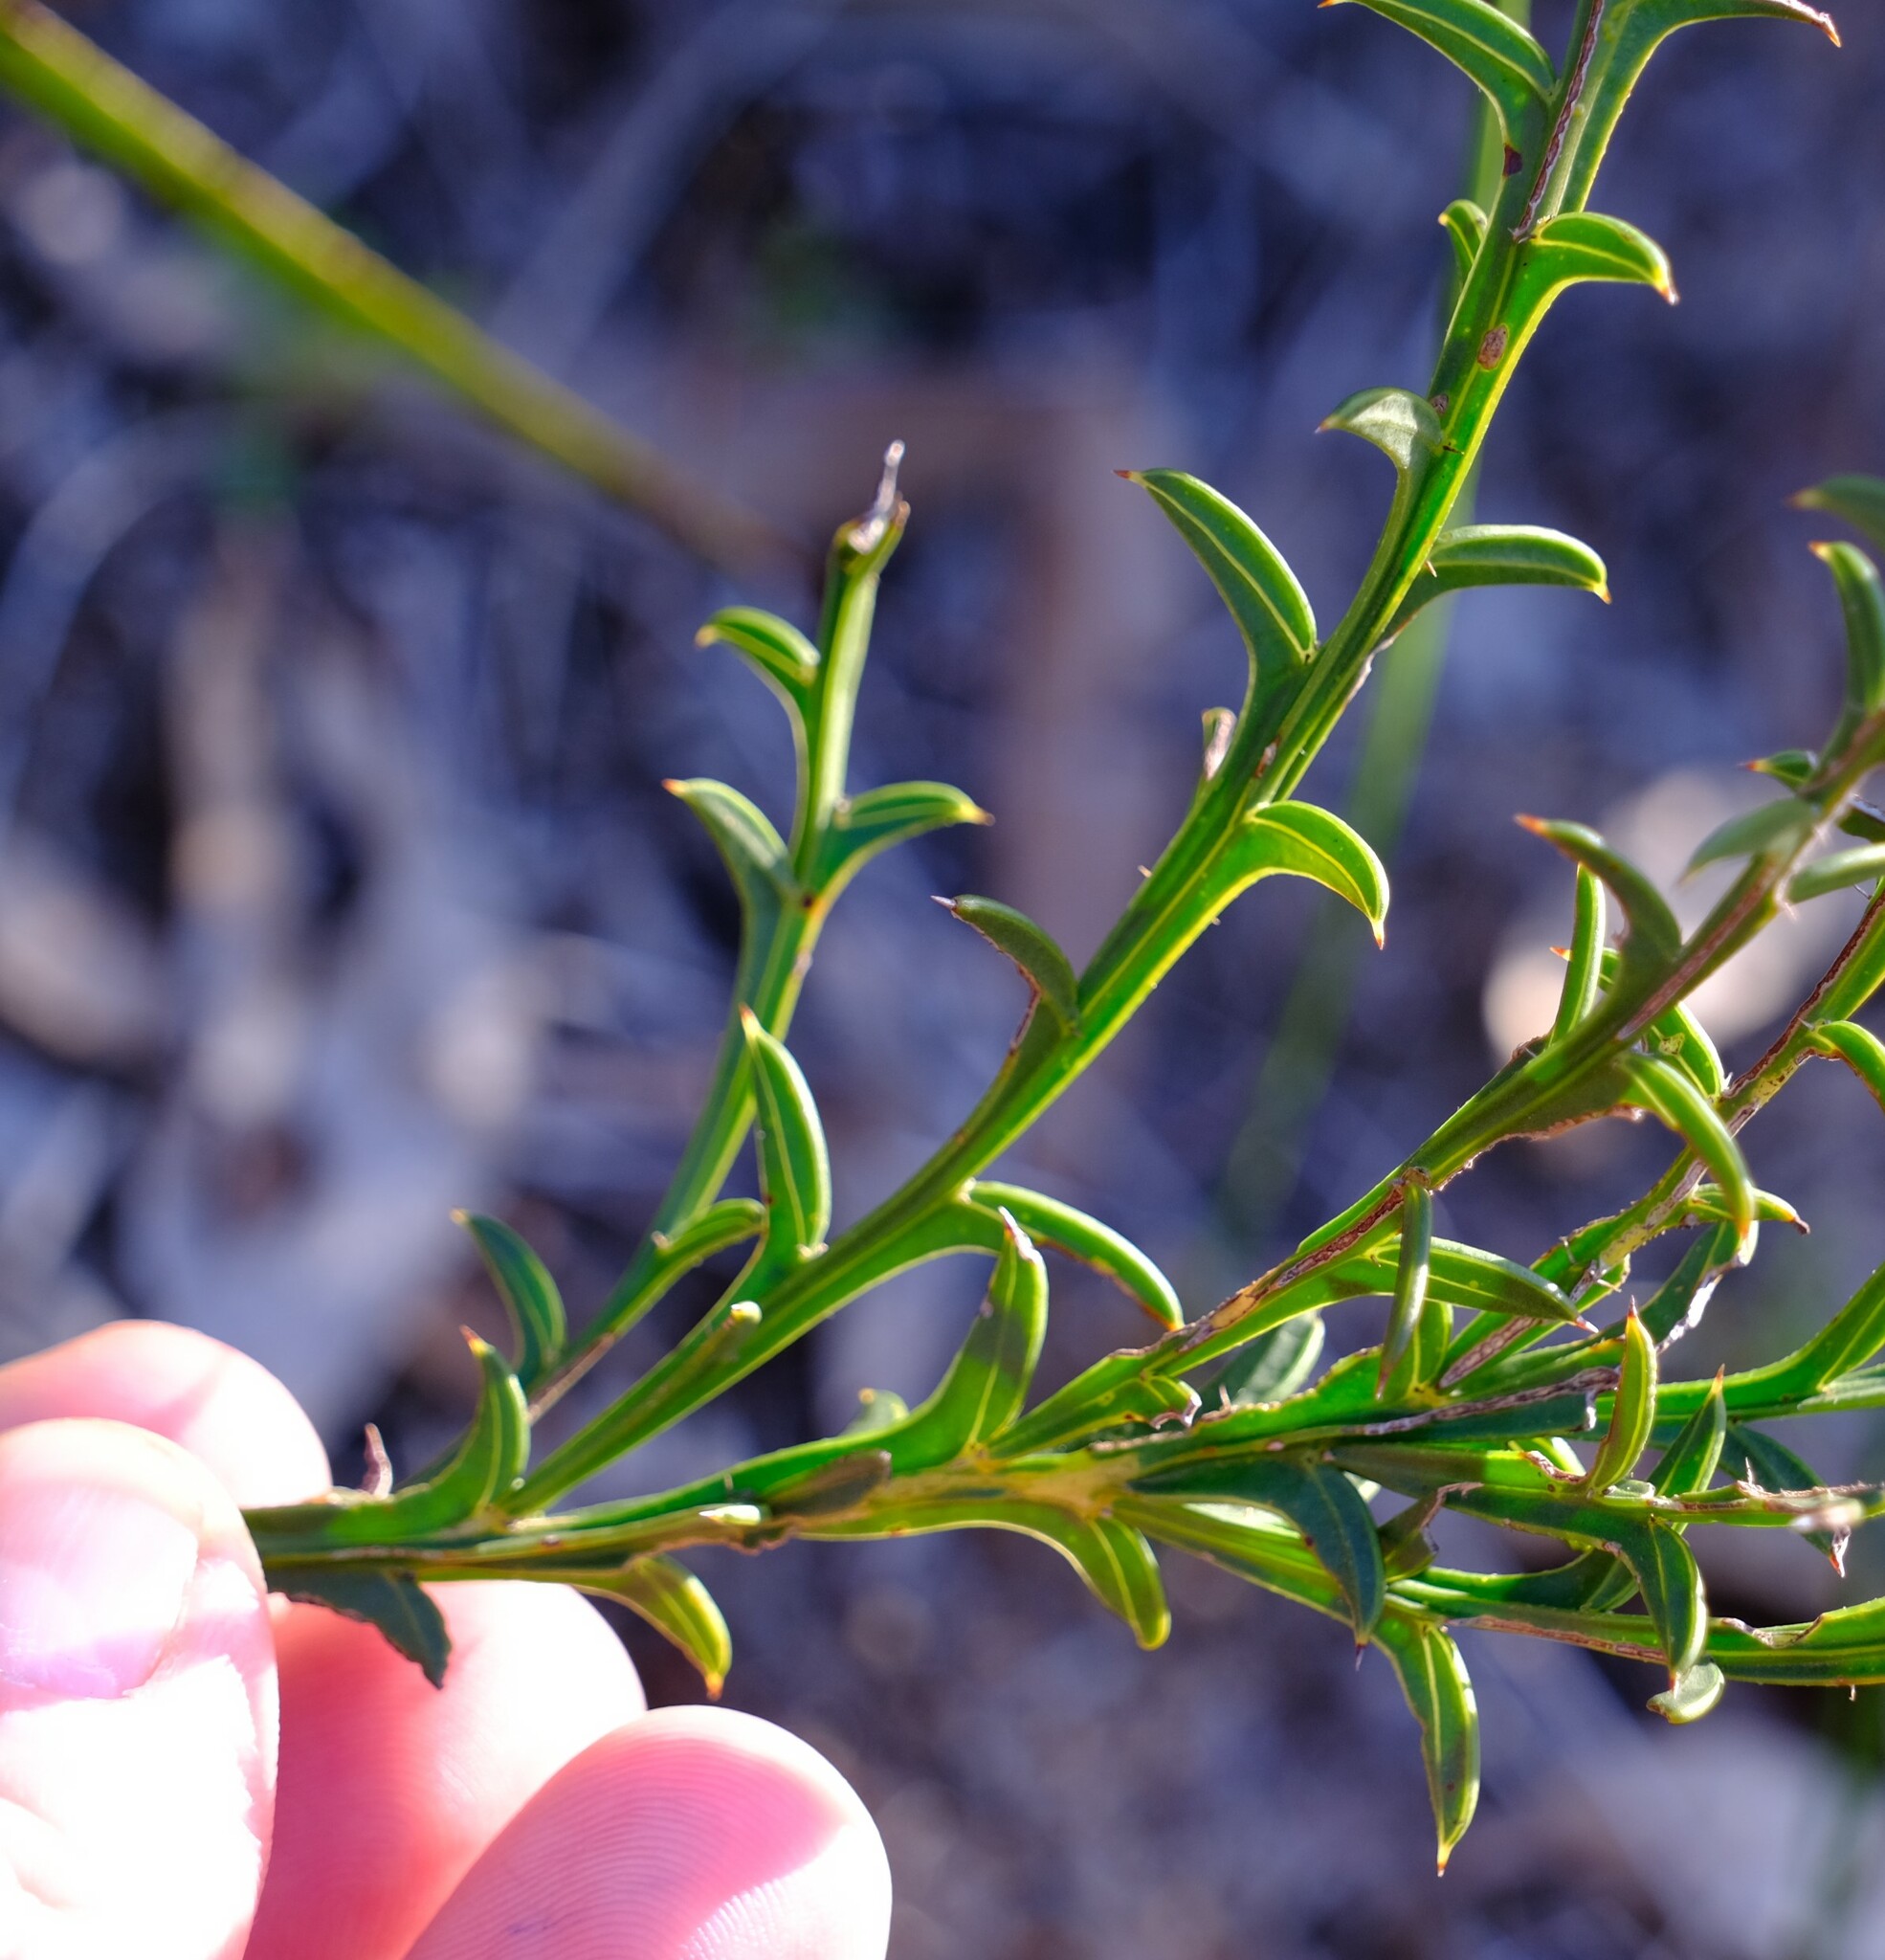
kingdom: Plantae
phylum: Tracheophyta
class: Magnoliopsida
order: Fabales
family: Fabaceae
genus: Acacia
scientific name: Acacia stenoptera
